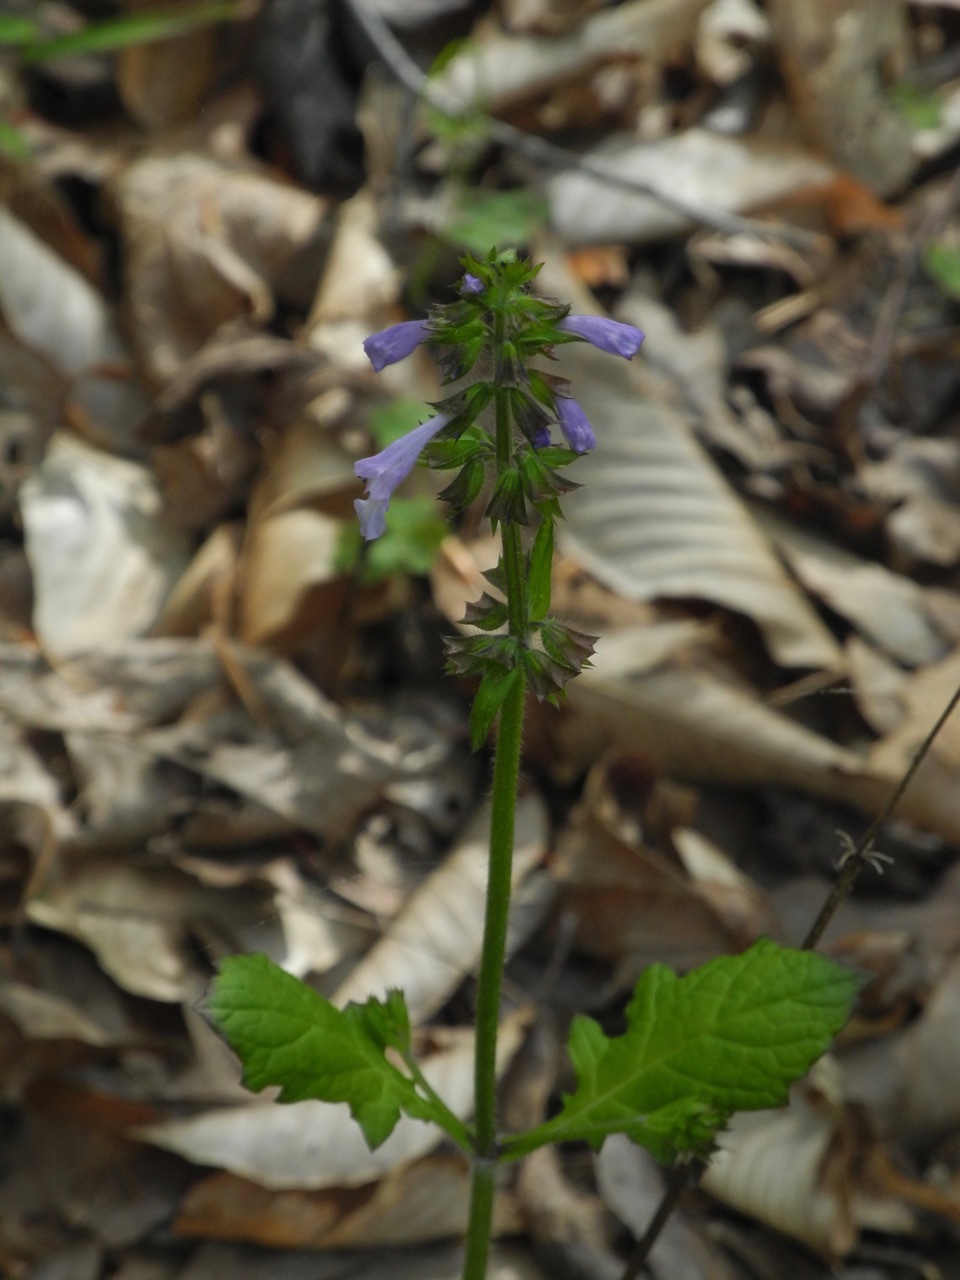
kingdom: Plantae
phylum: Tracheophyta
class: Magnoliopsida
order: Lamiales
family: Lamiaceae
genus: Salvia
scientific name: Salvia lyrata
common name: Cancerweed
